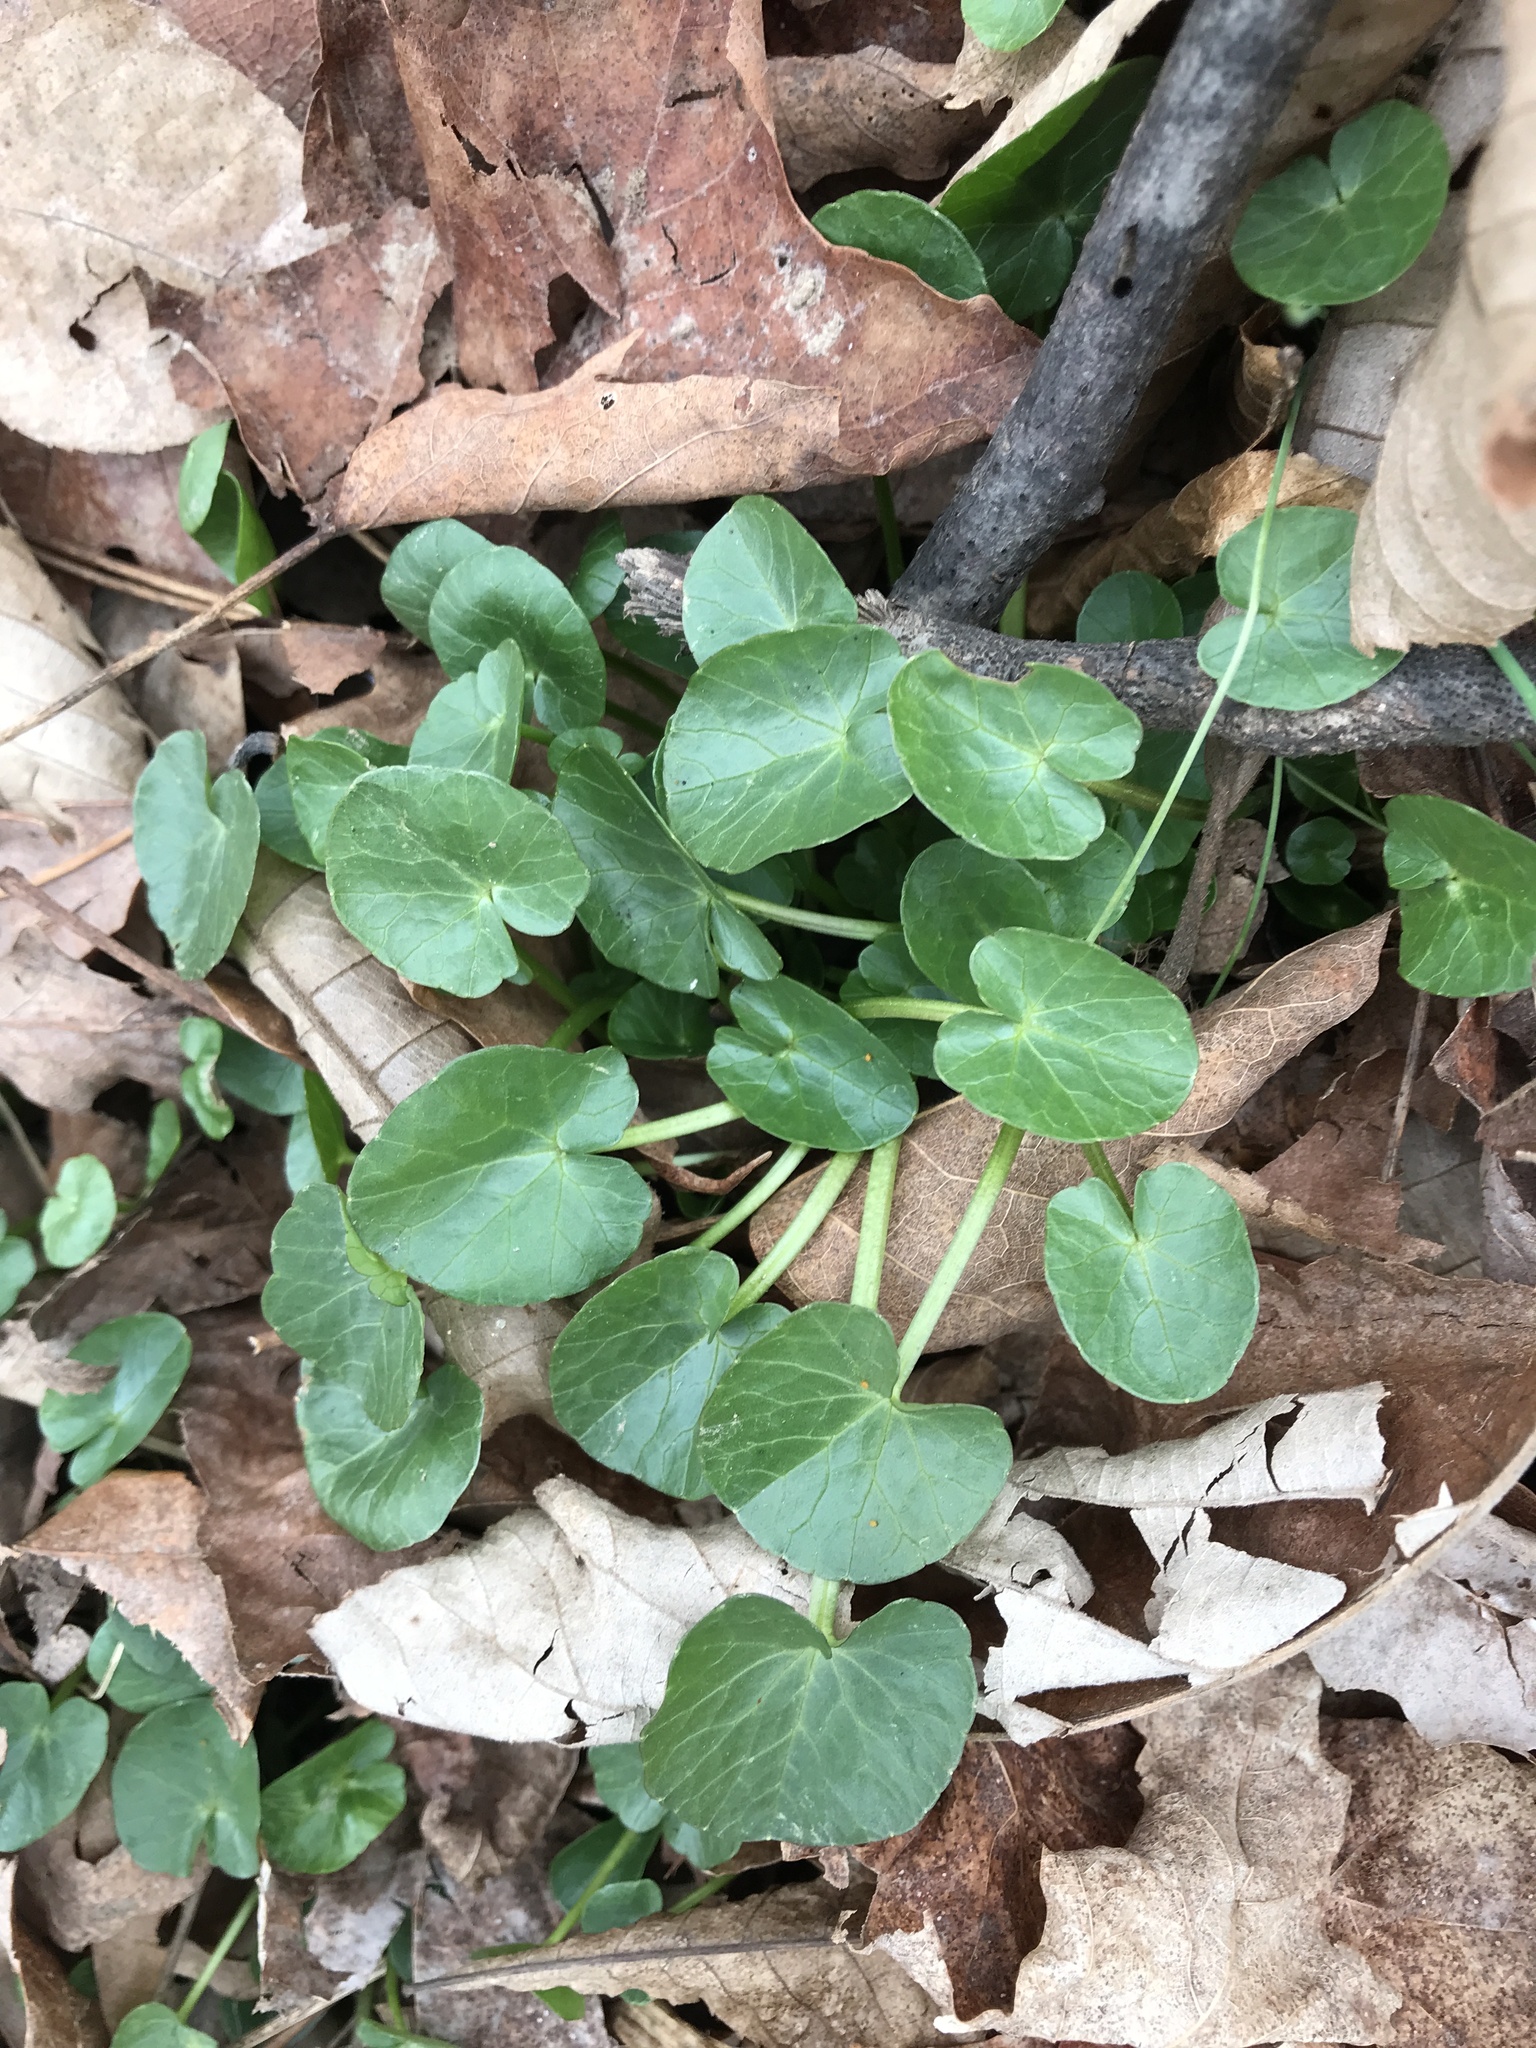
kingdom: Plantae
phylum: Tracheophyta
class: Magnoliopsida
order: Ranunculales
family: Ranunculaceae
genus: Ficaria
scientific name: Ficaria verna
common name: Lesser celandine
